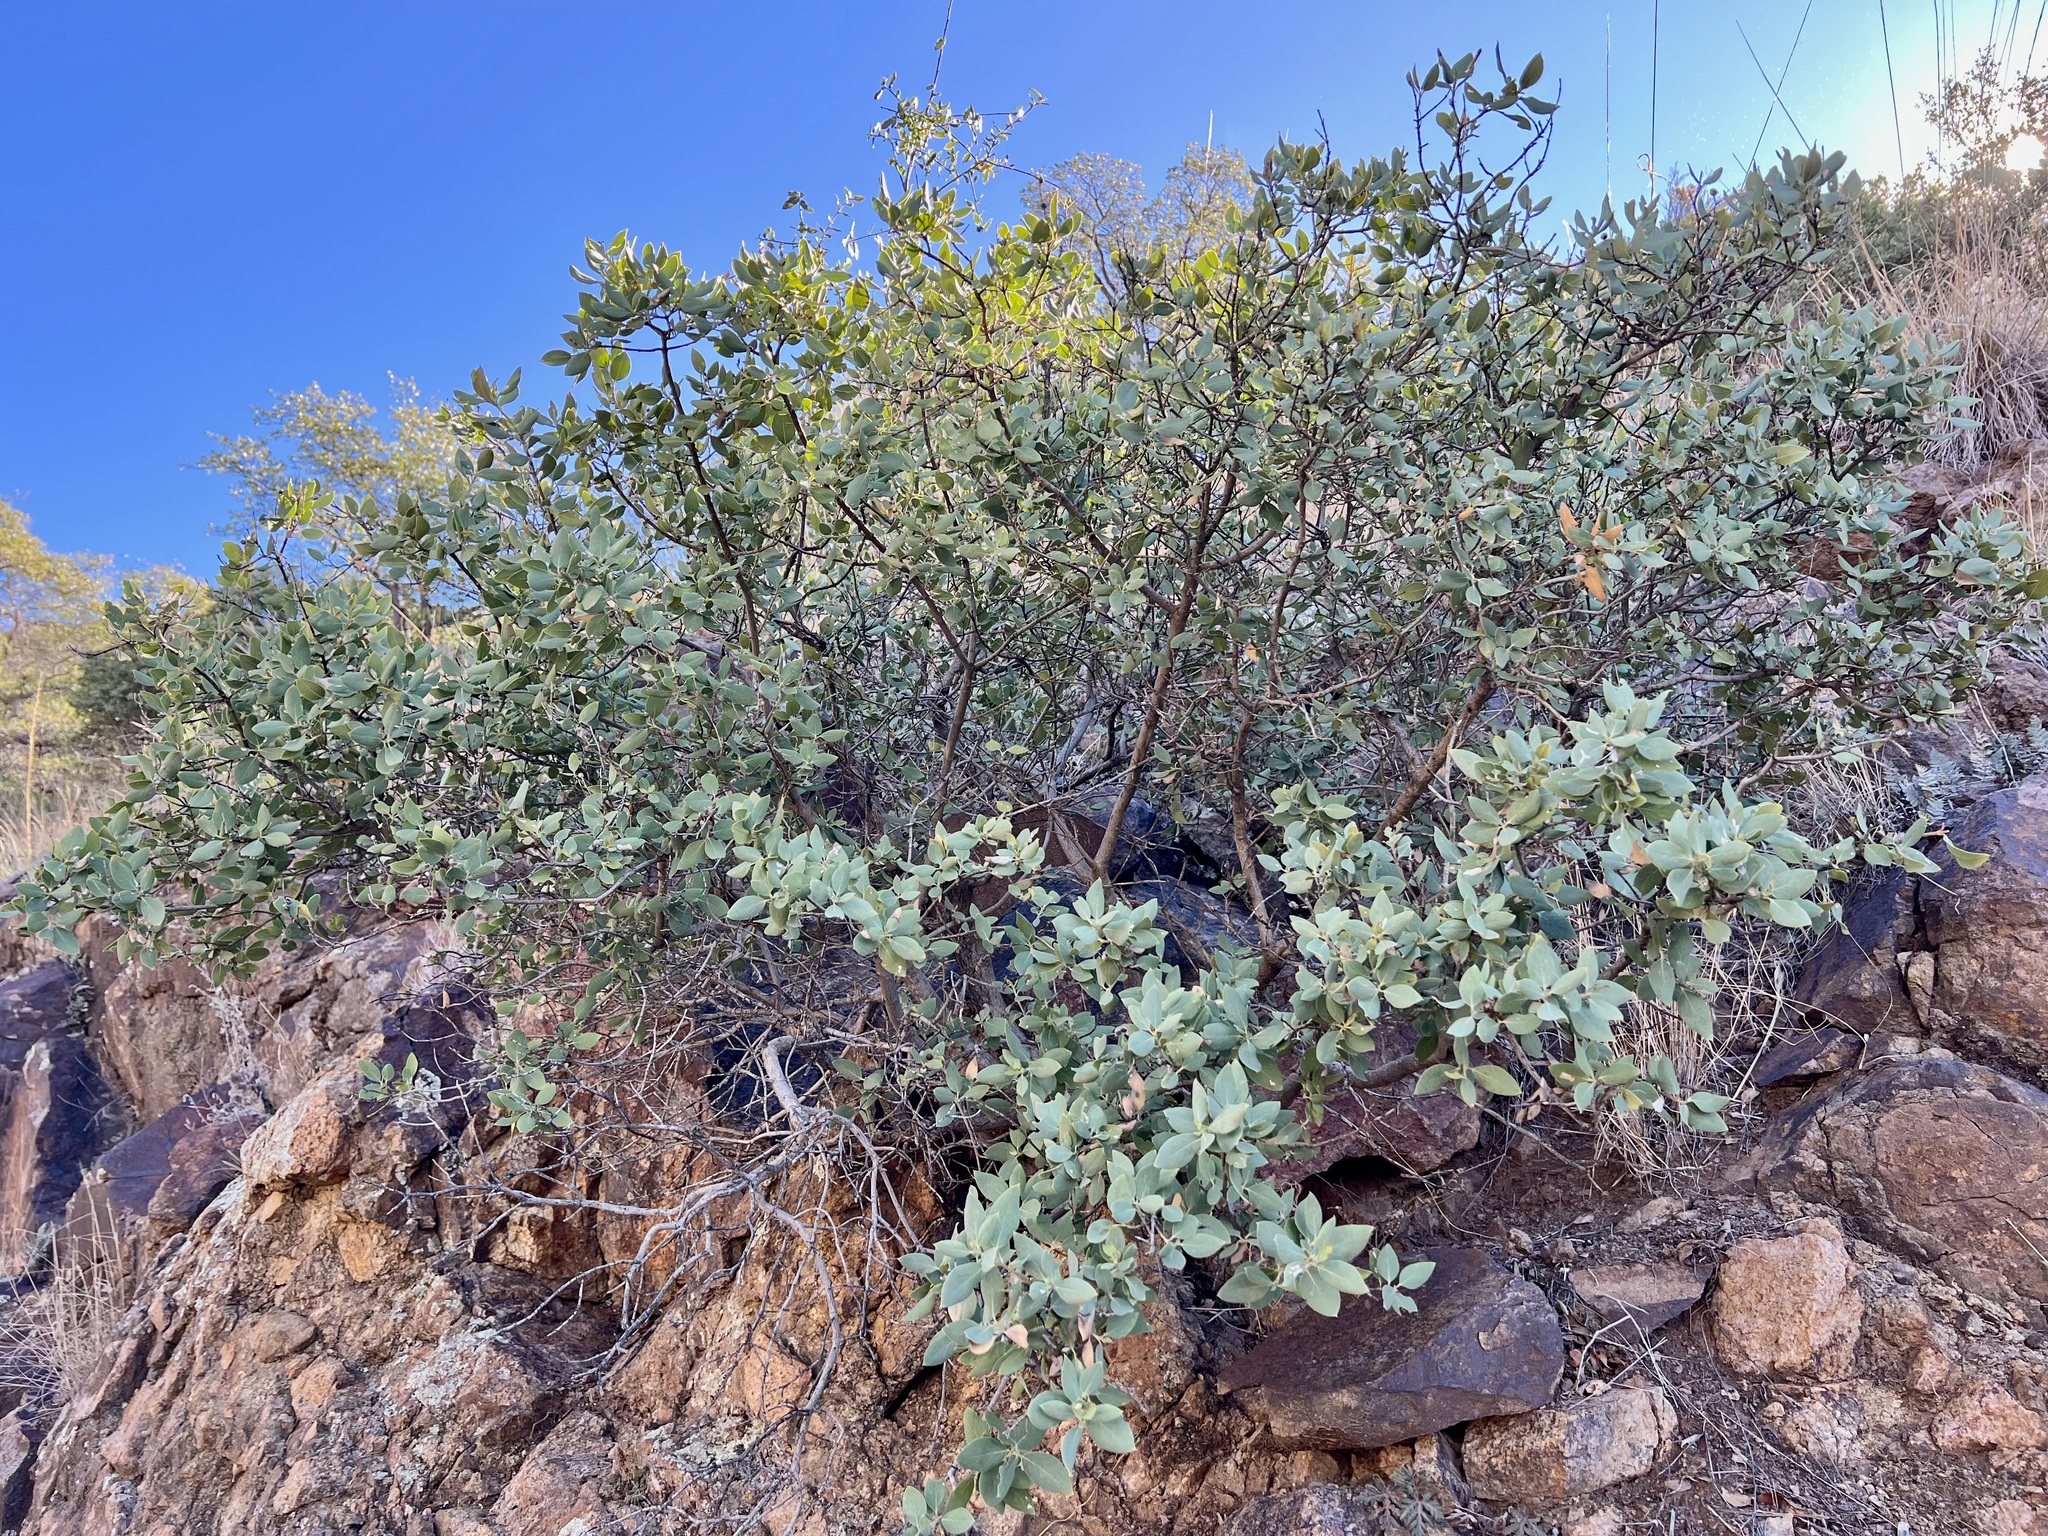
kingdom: Plantae
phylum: Tracheophyta
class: Magnoliopsida
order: Garryales
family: Garryaceae
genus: Garrya
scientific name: Garrya wrightii
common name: Wright's silktassel
